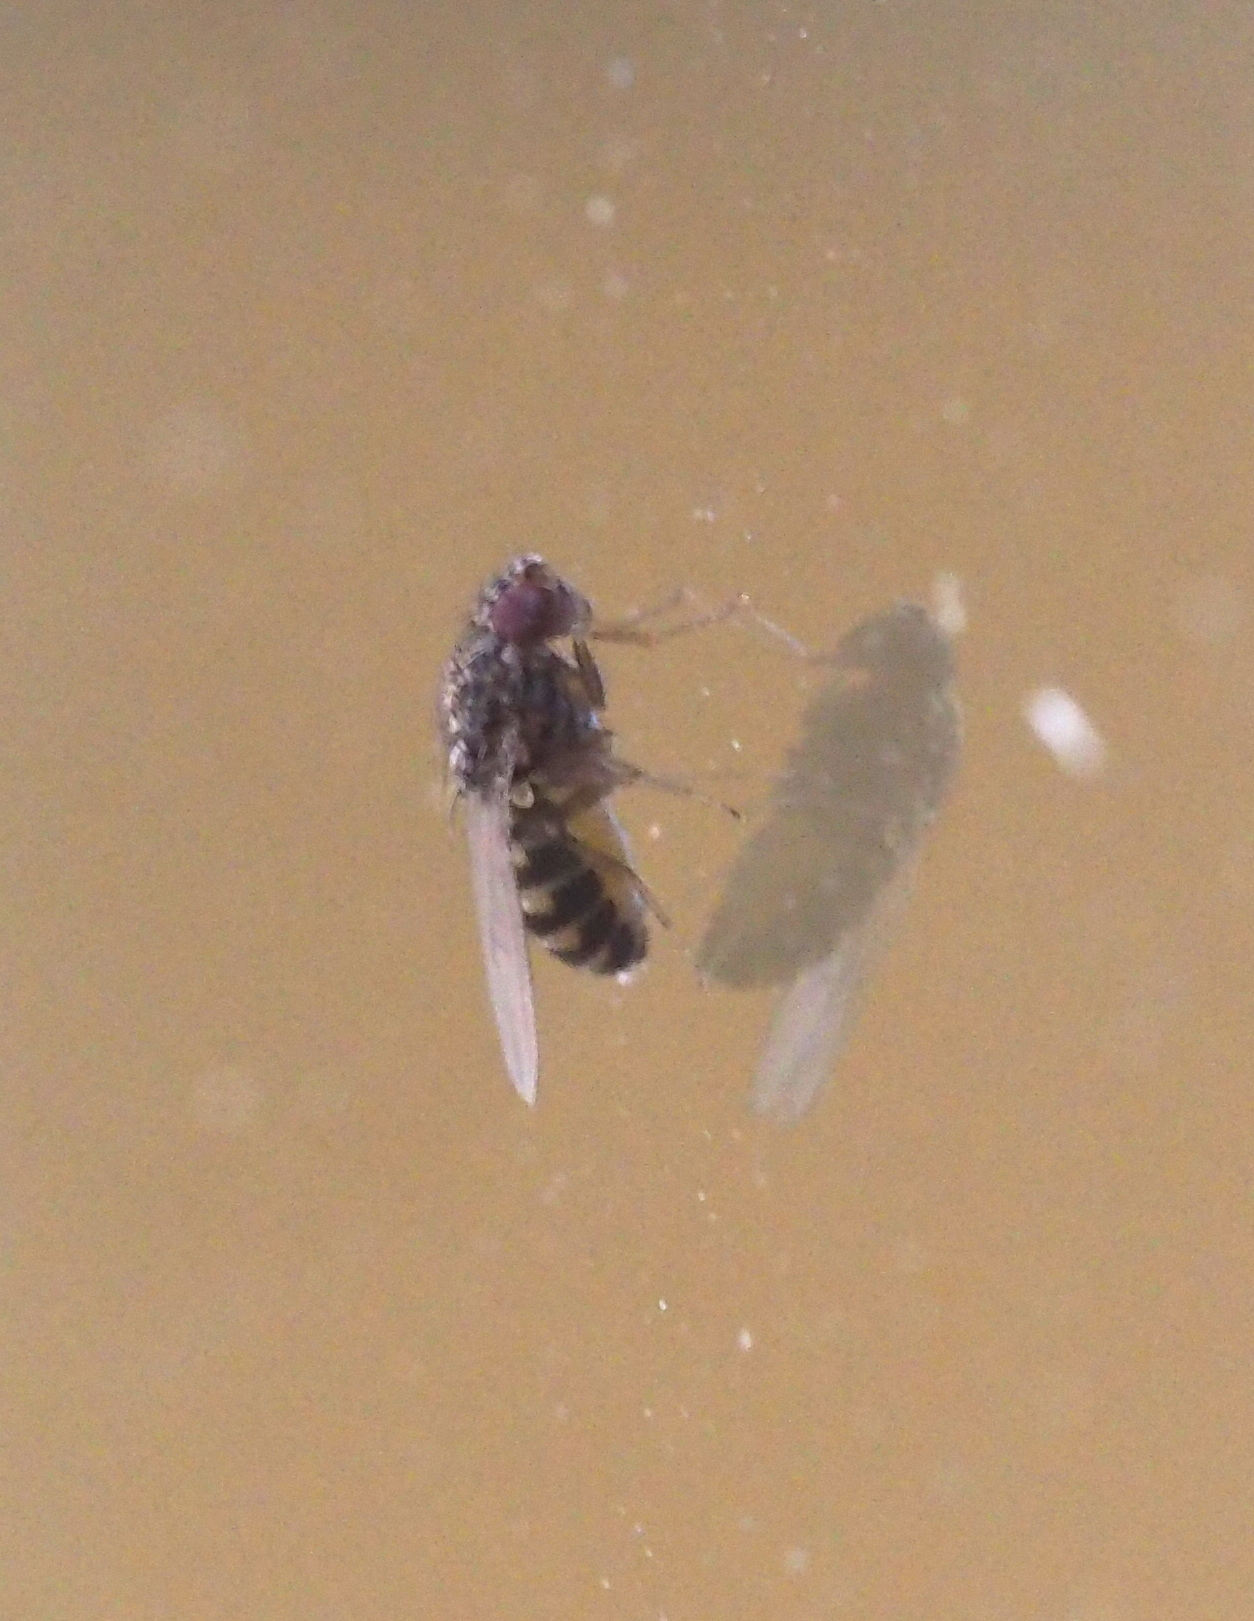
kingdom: Animalia
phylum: Arthropoda
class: Insecta
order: Diptera
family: Drosophilidae
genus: Drosophila
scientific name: Drosophila hydei
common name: Pomace fly
